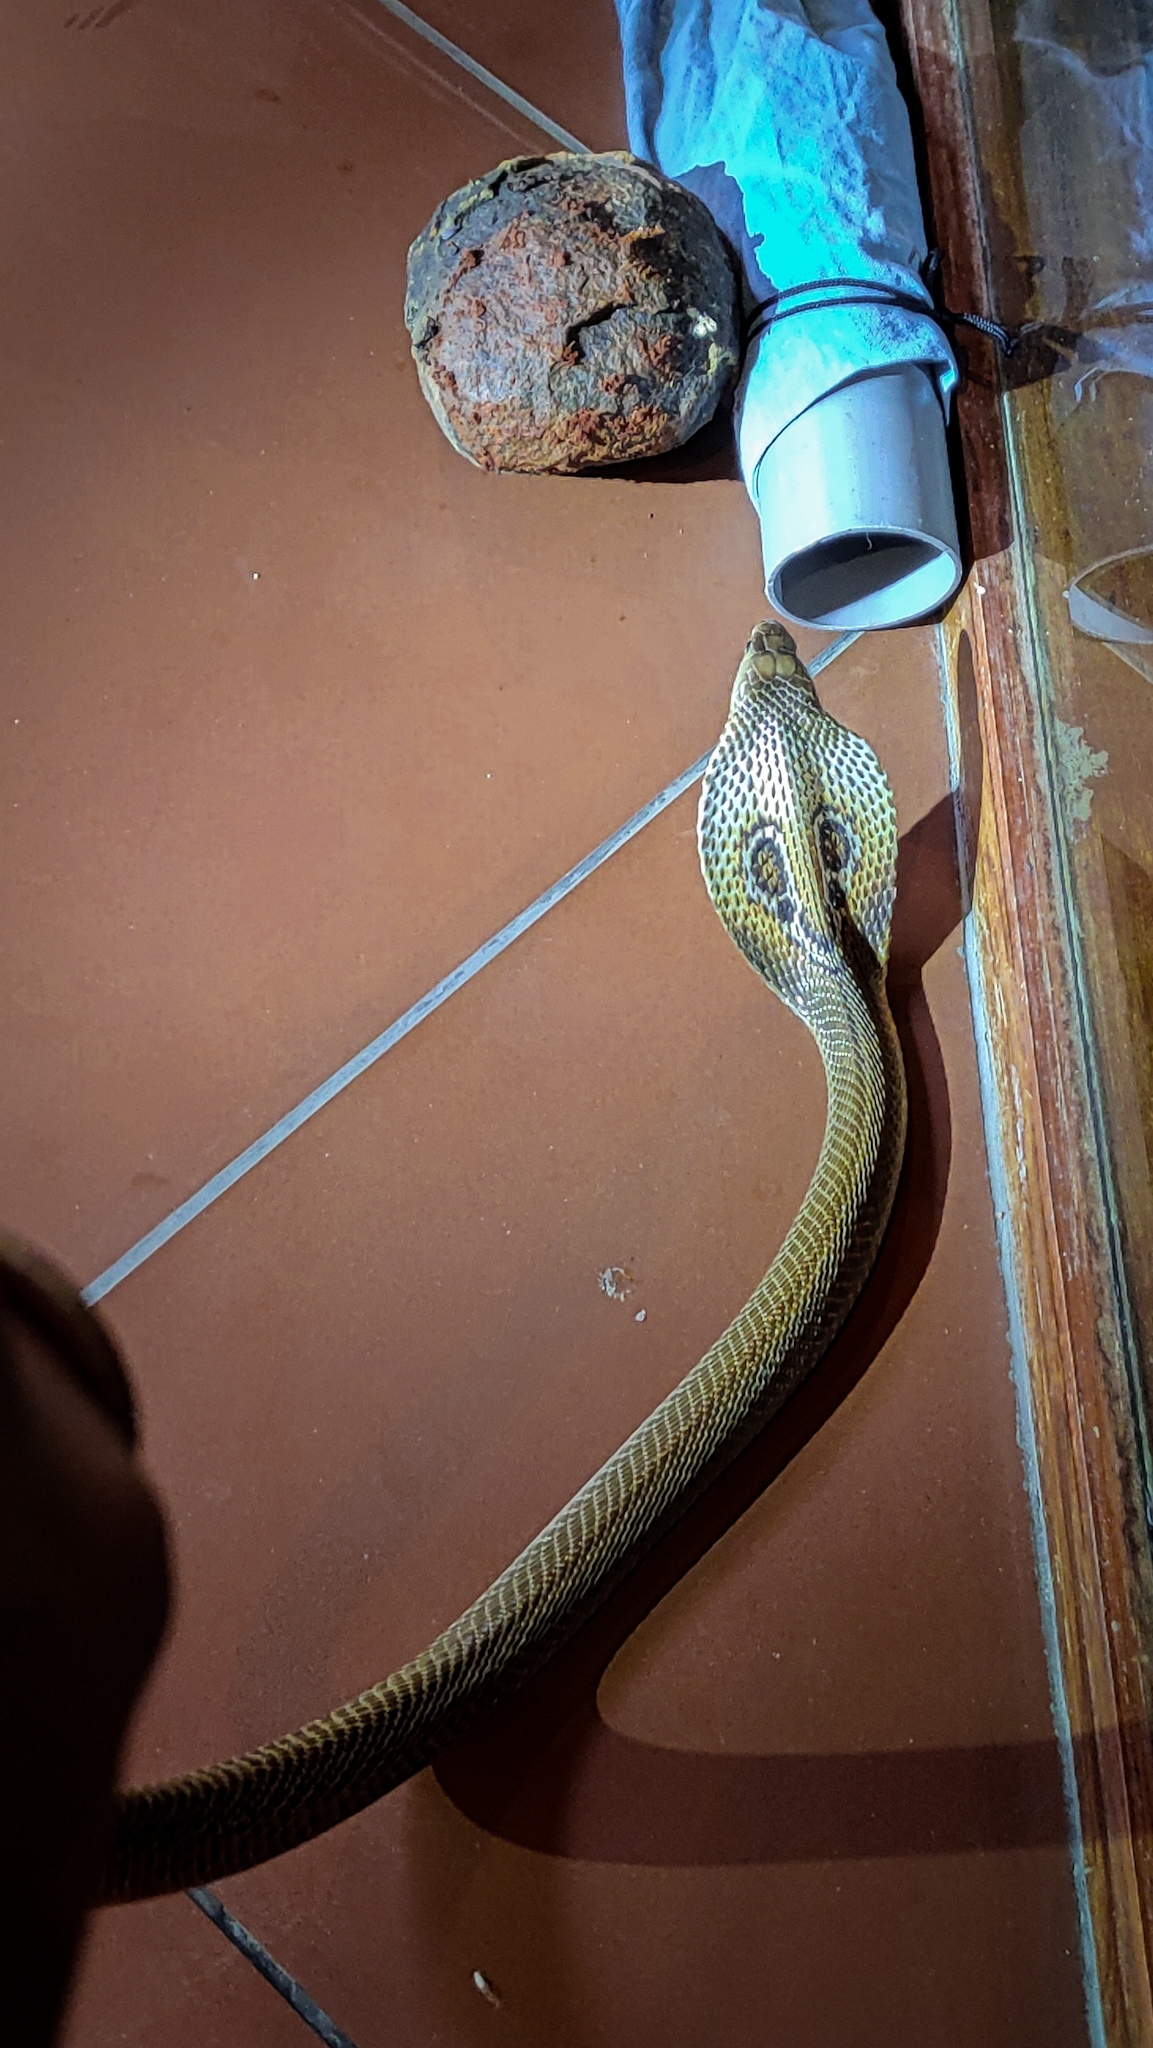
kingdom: Animalia
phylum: Chordata
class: Squamata
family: Elapidae
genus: Naja
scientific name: Naja naja
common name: Indian cobra
